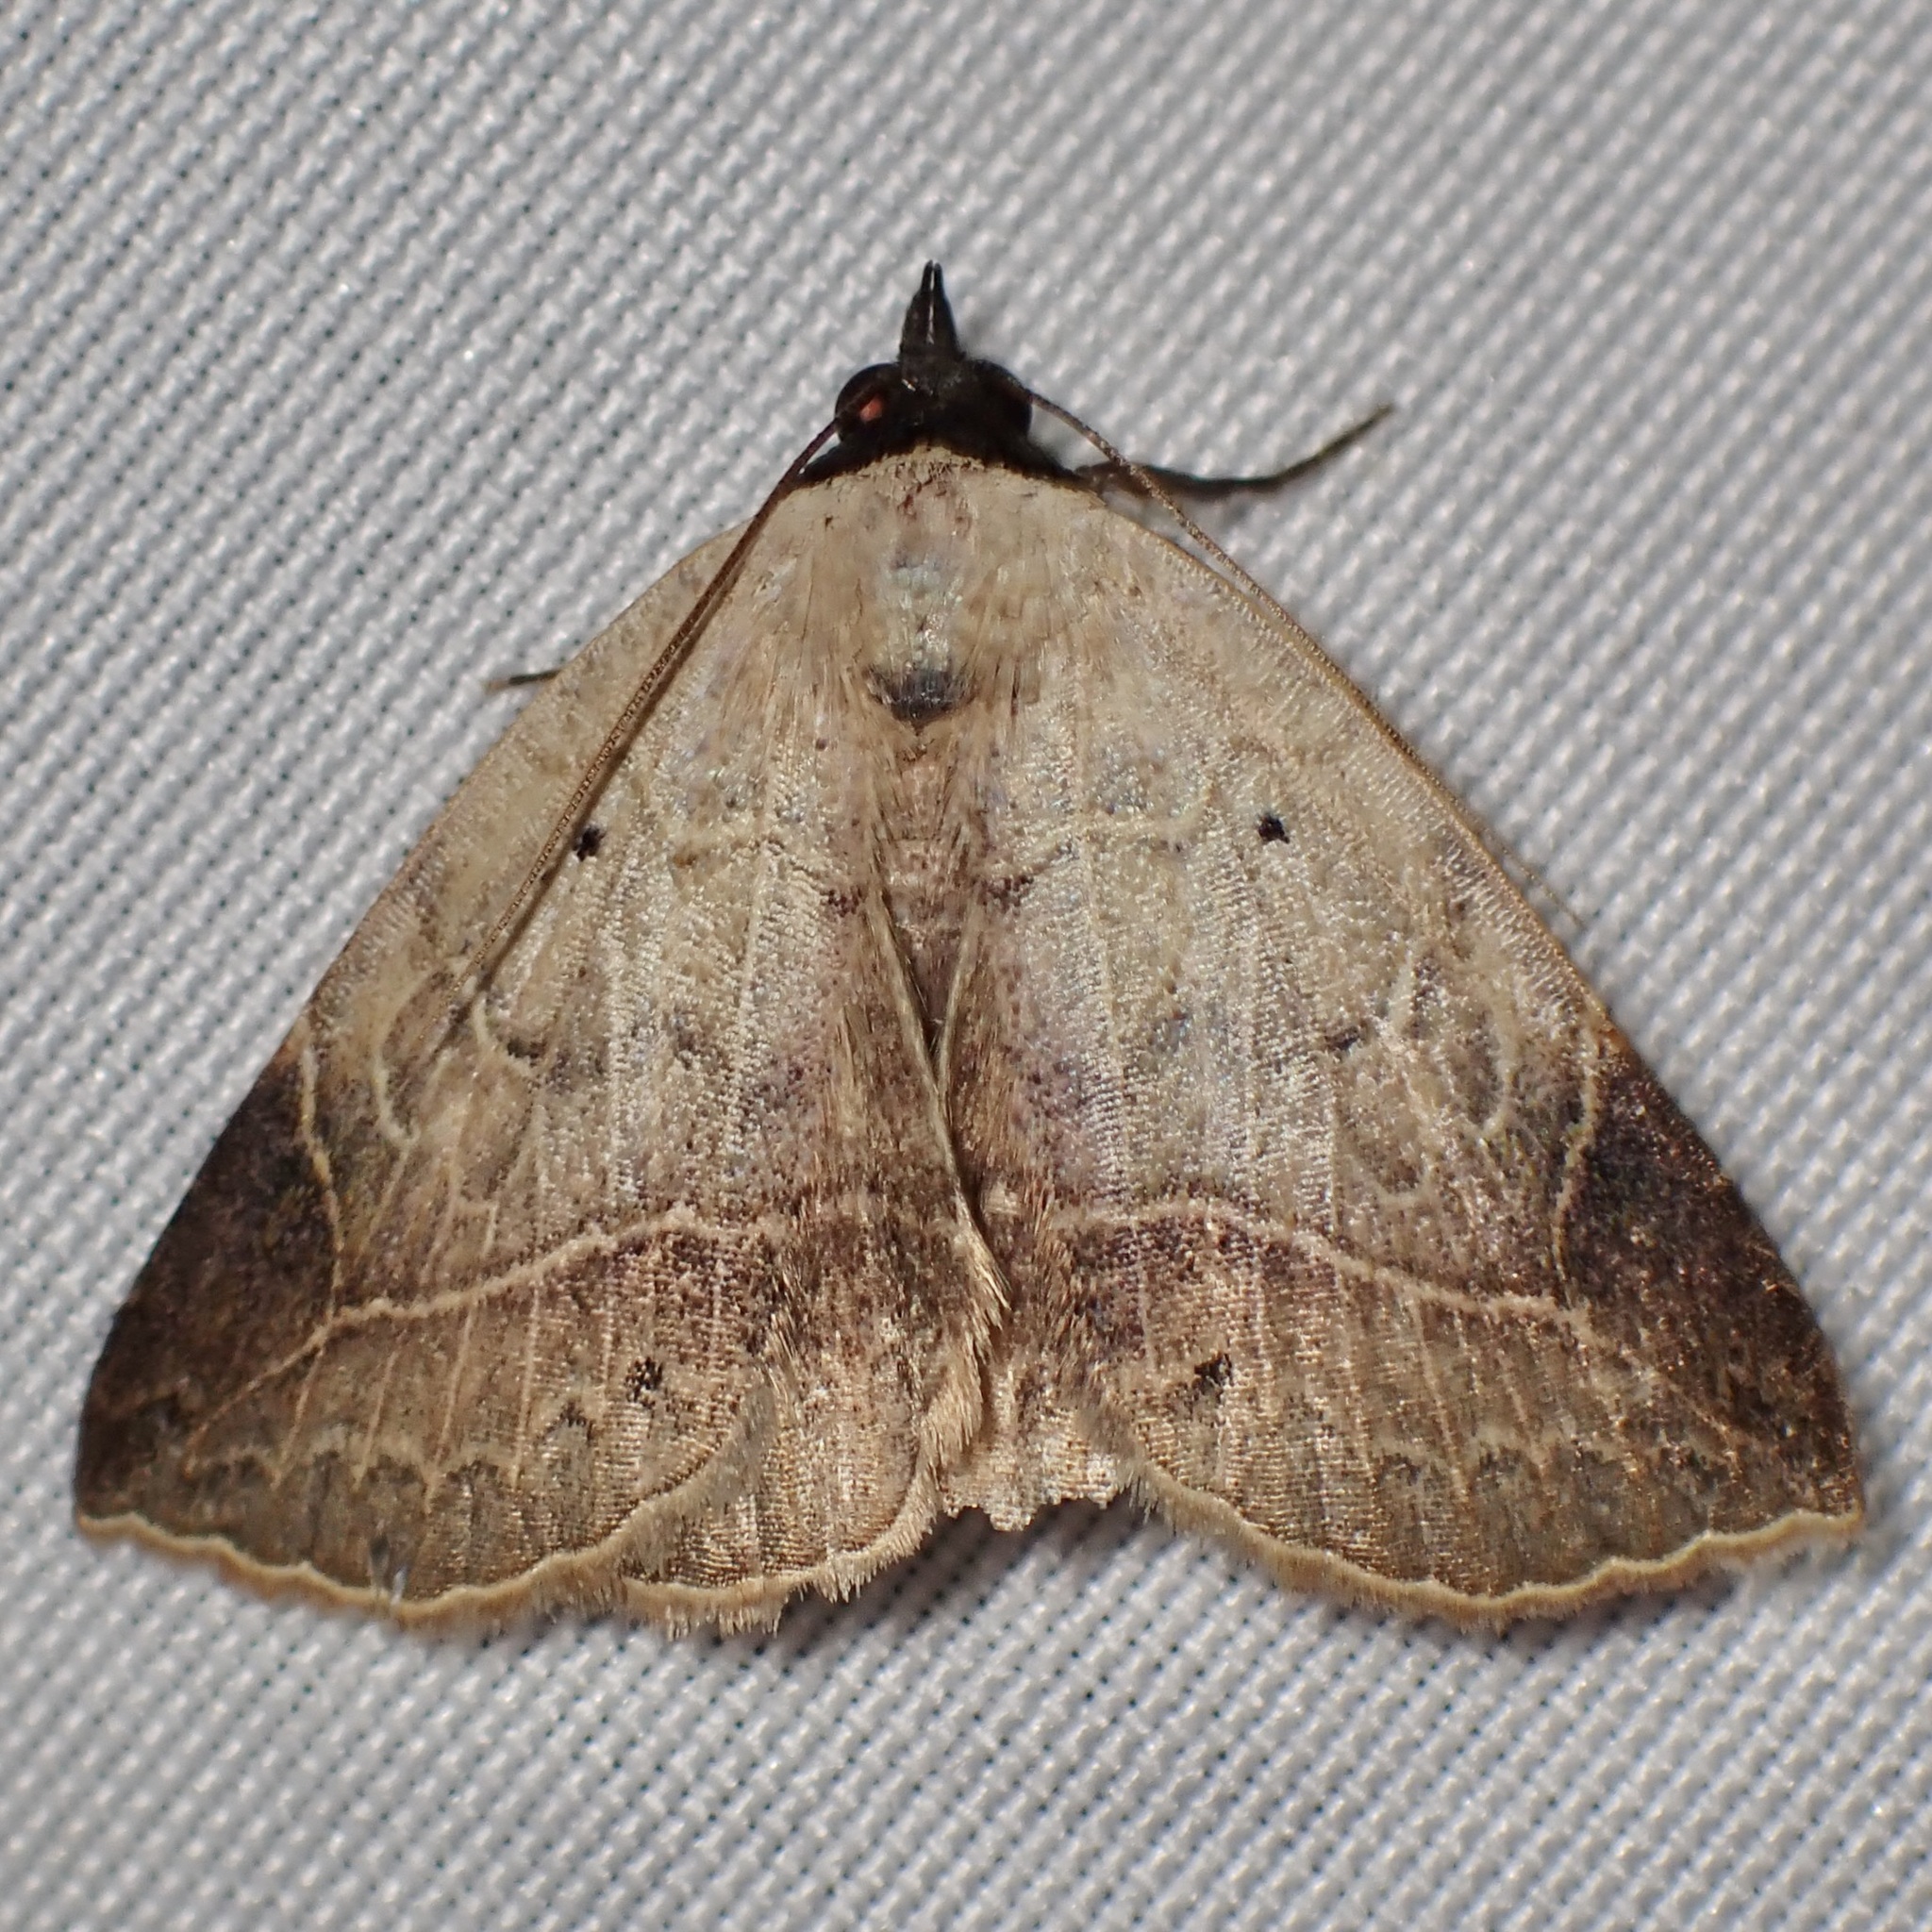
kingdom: Animalia
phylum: Arthropoda
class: Insecta
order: Lepidoptera
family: Erebidae
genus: Isogona
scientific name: Isogona segura
